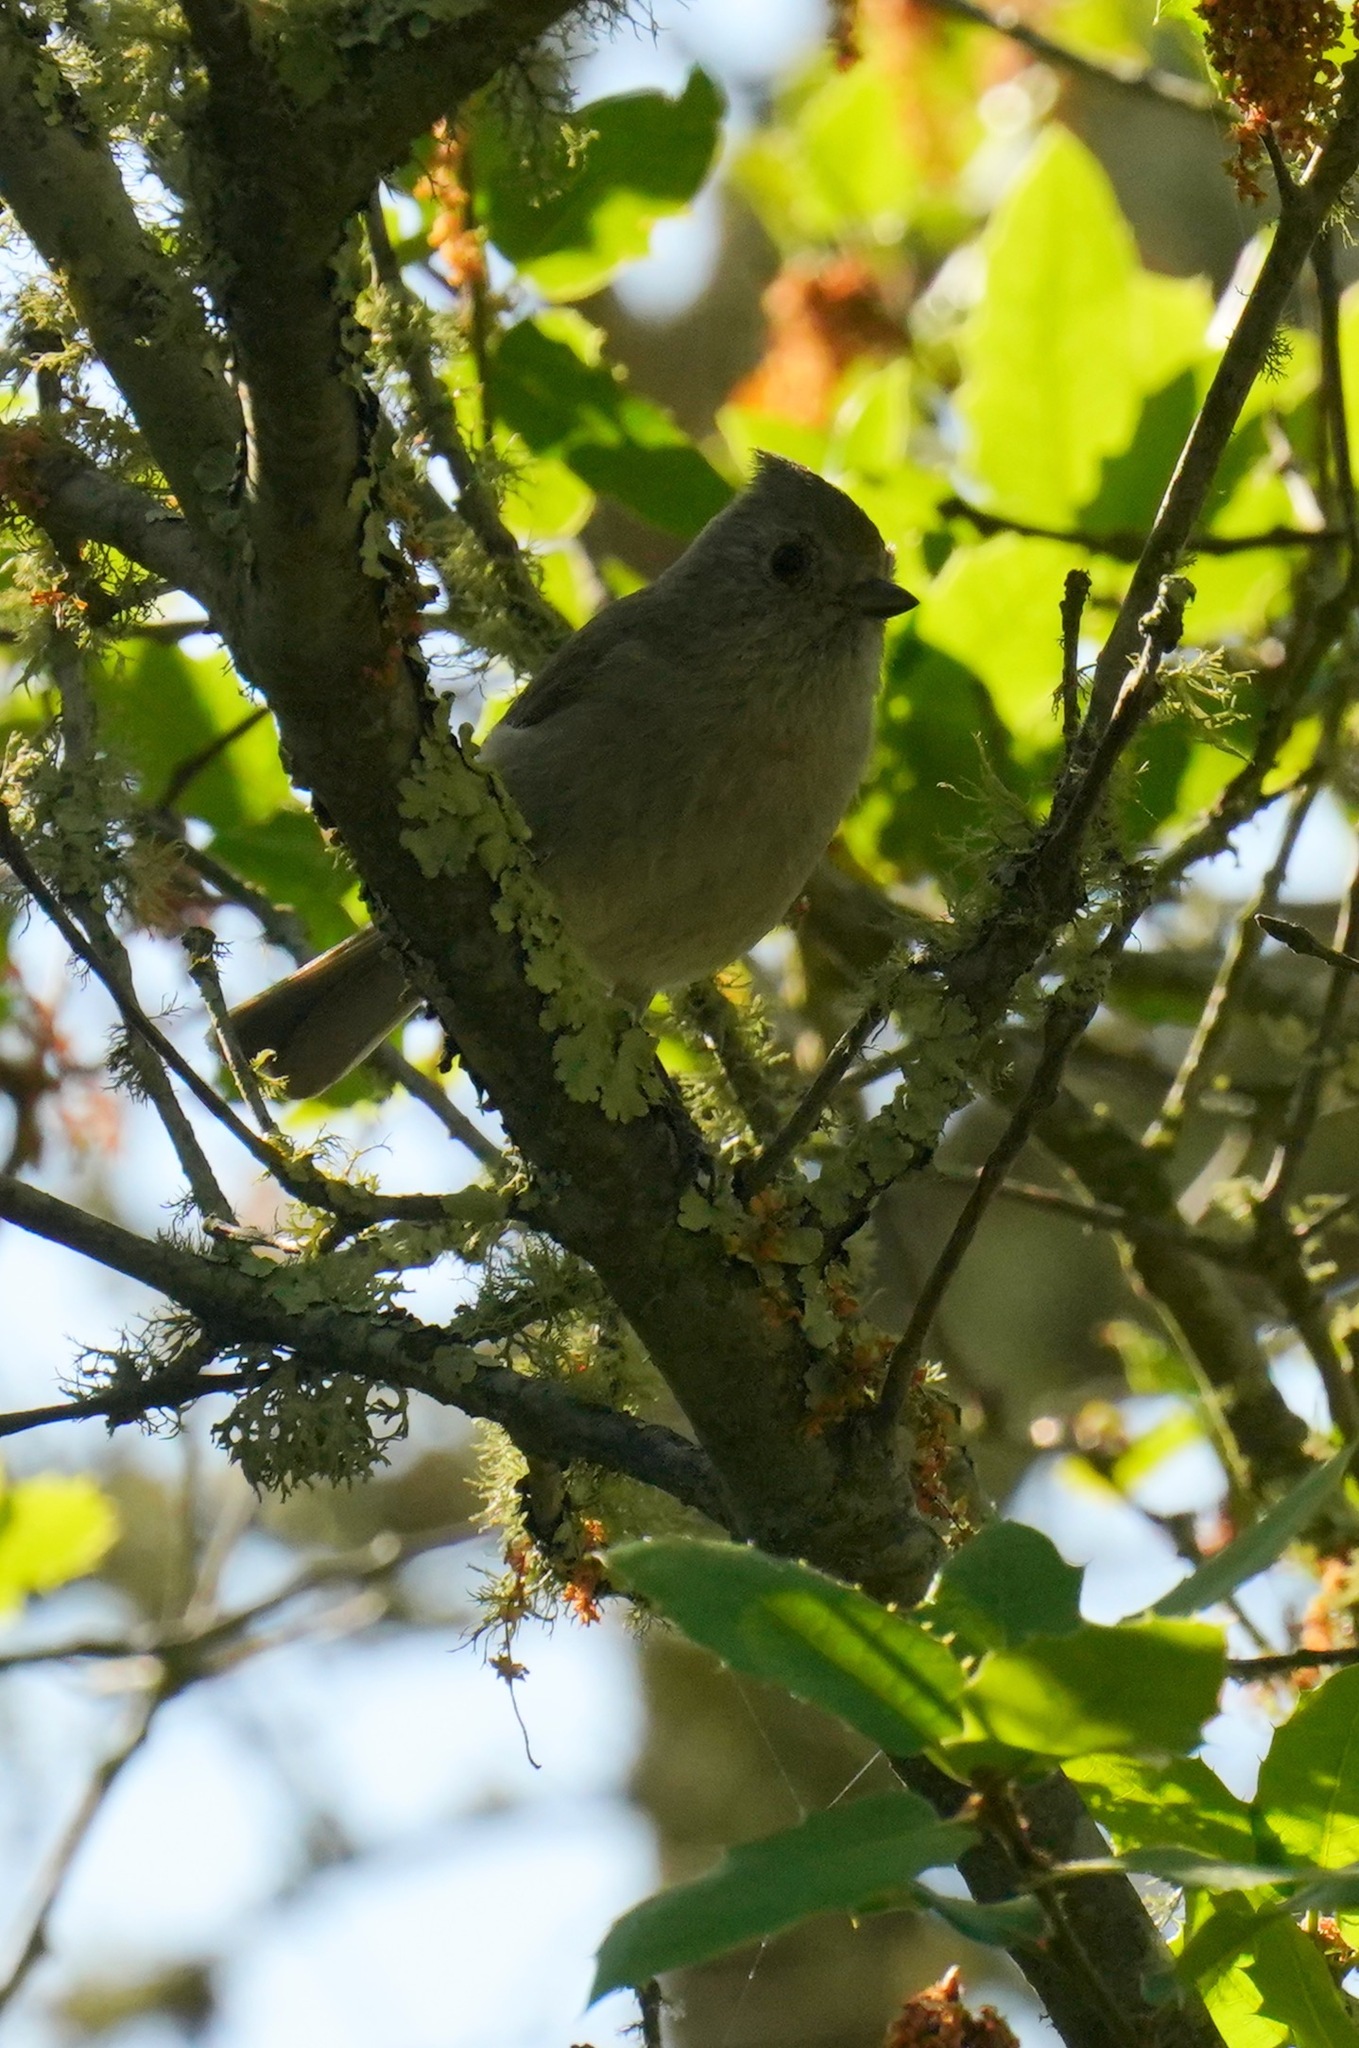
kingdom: Animalia
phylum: Chordata
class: Aves
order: Passeriformes
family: Paridae
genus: Baeolophus
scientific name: Baeolophus inornatus
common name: Oak titmouse
